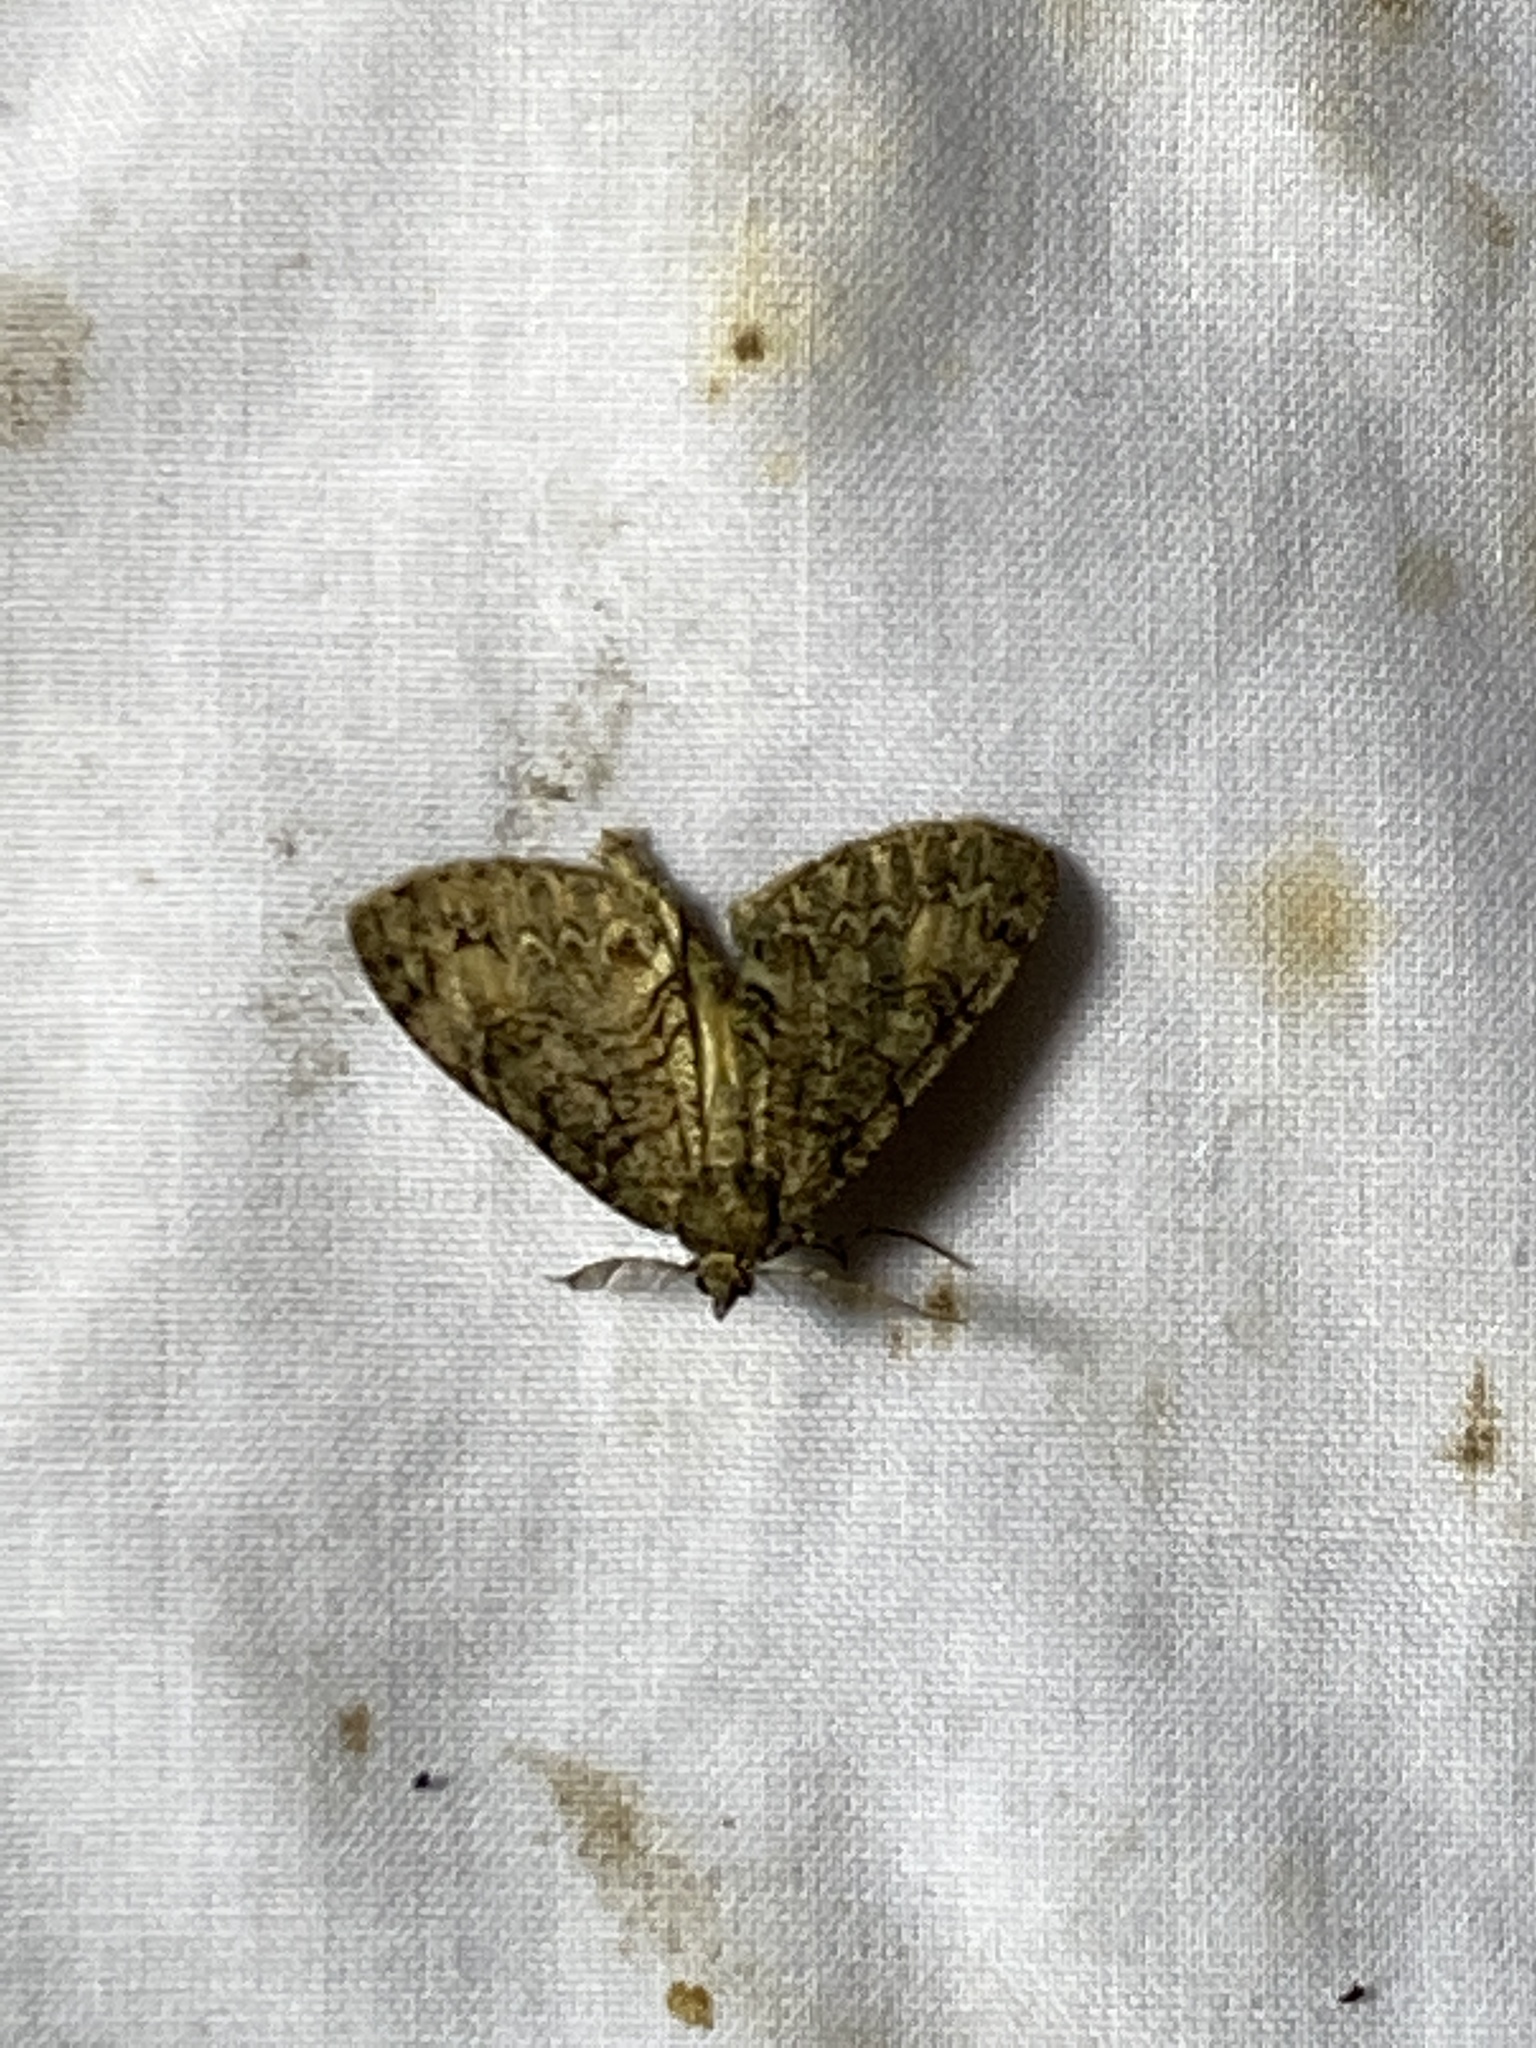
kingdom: Animalia
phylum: Arthropoda
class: Insecta
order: Lepidoptera
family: Geometridae
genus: Pseudocoremia
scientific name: Pseudocoremia suavis
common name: Common forest looper
